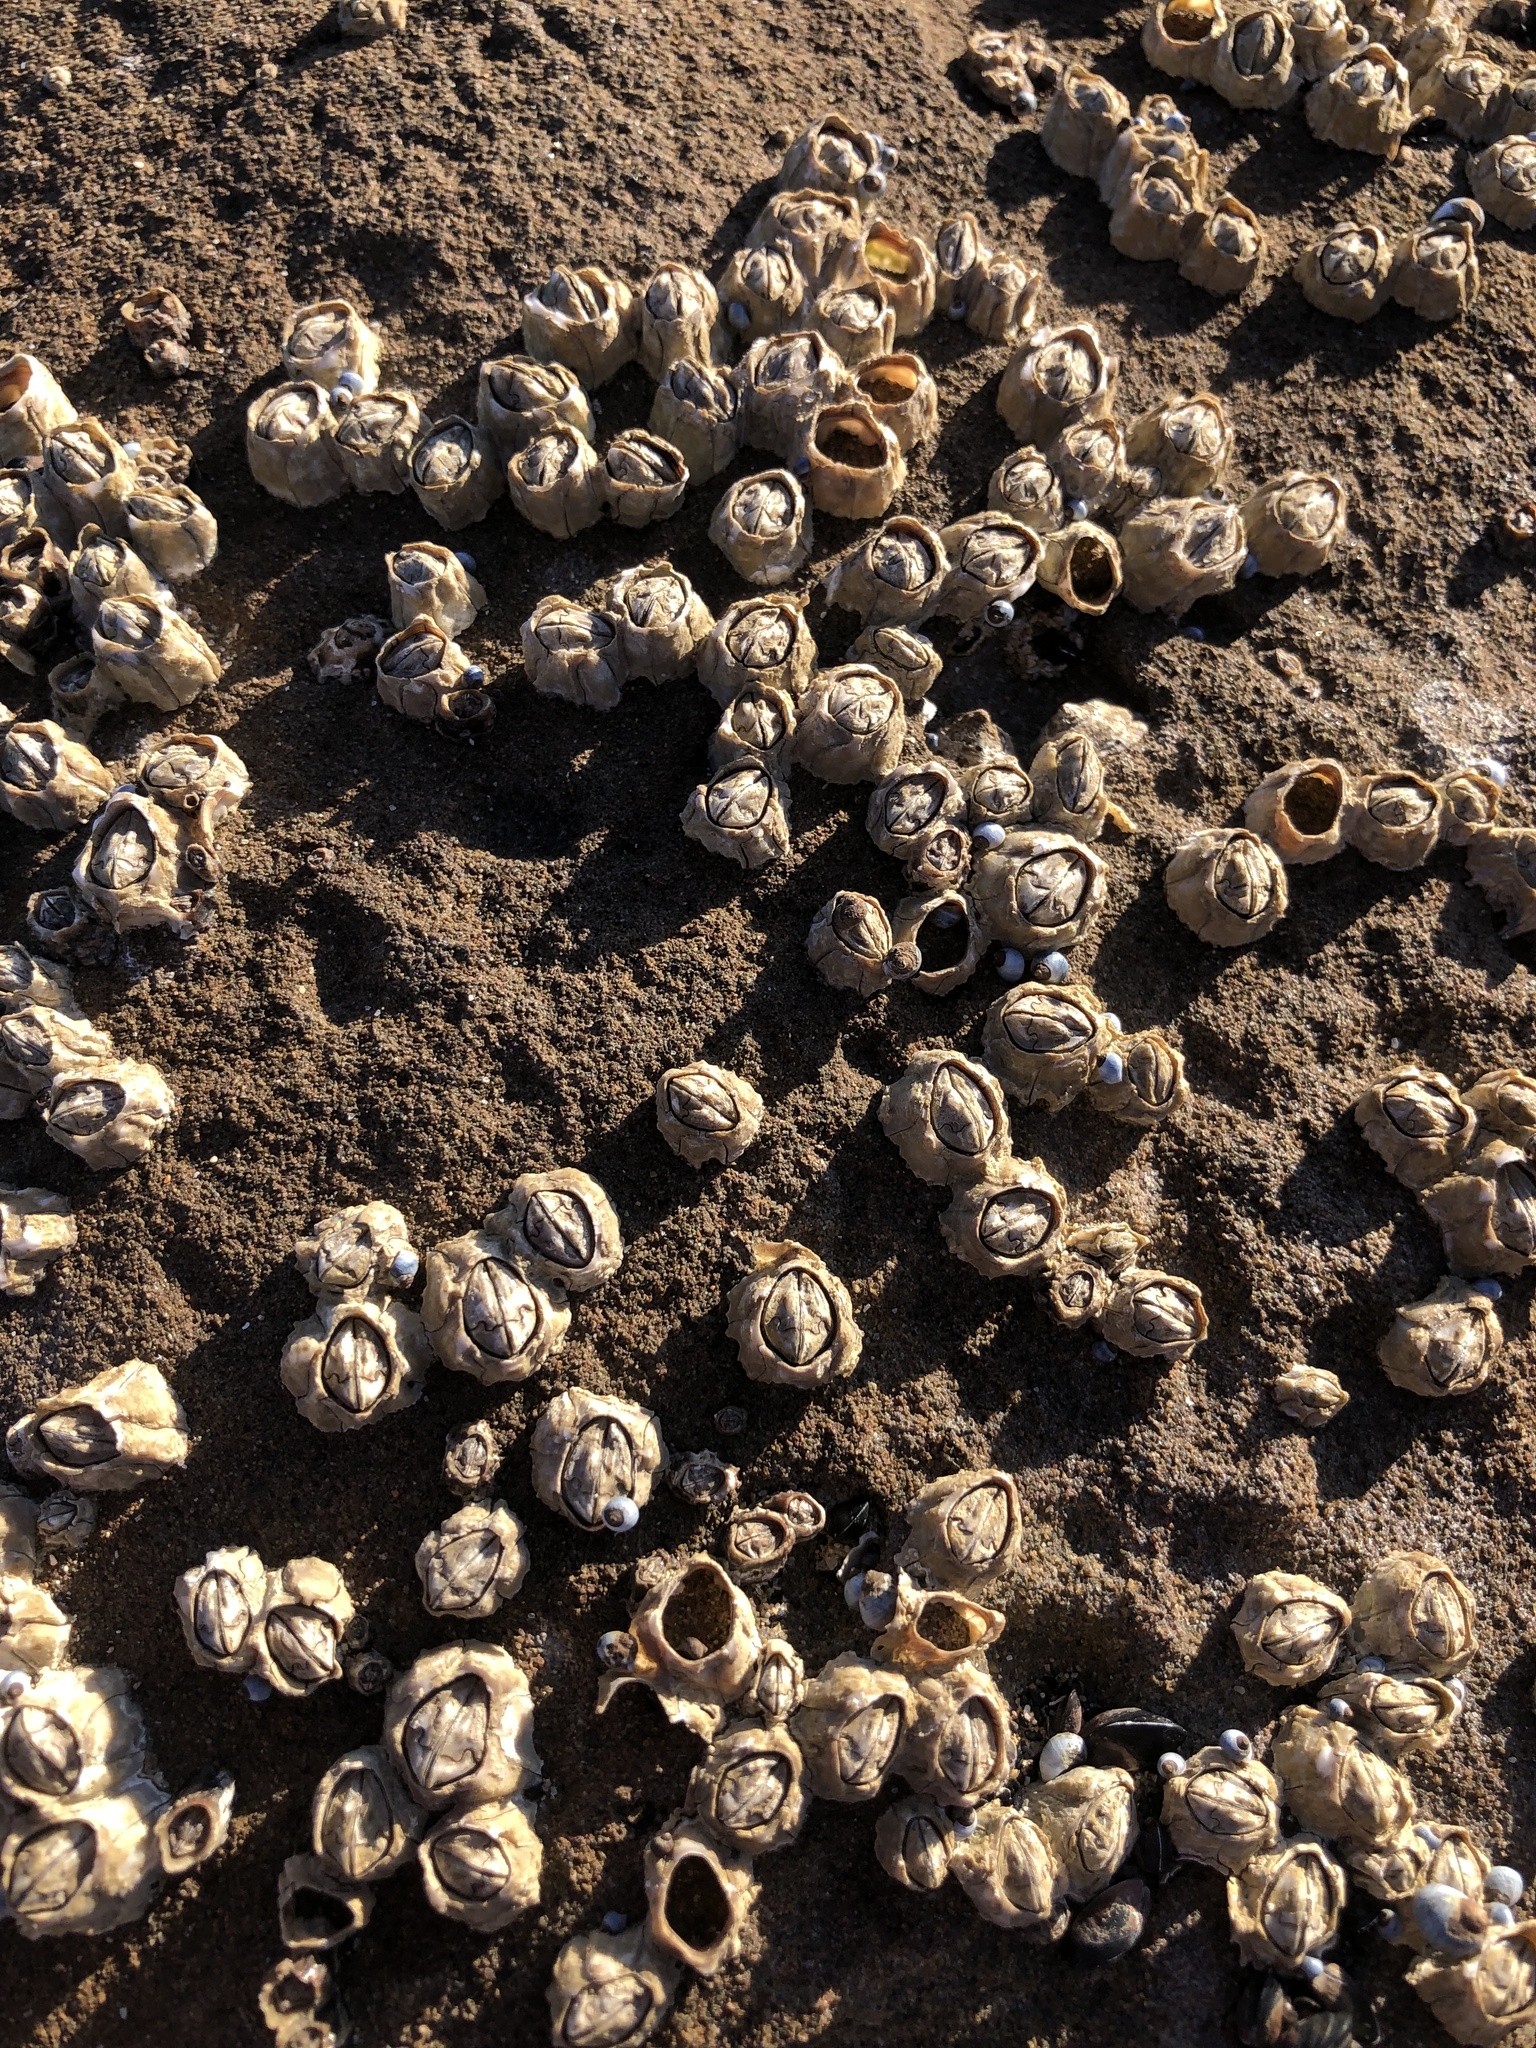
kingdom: Animalia
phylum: Arthropoda
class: Maxillopoda
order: Sessilia
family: Chthamalidae
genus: Chthamalus
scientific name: Chthamalus antennatus
